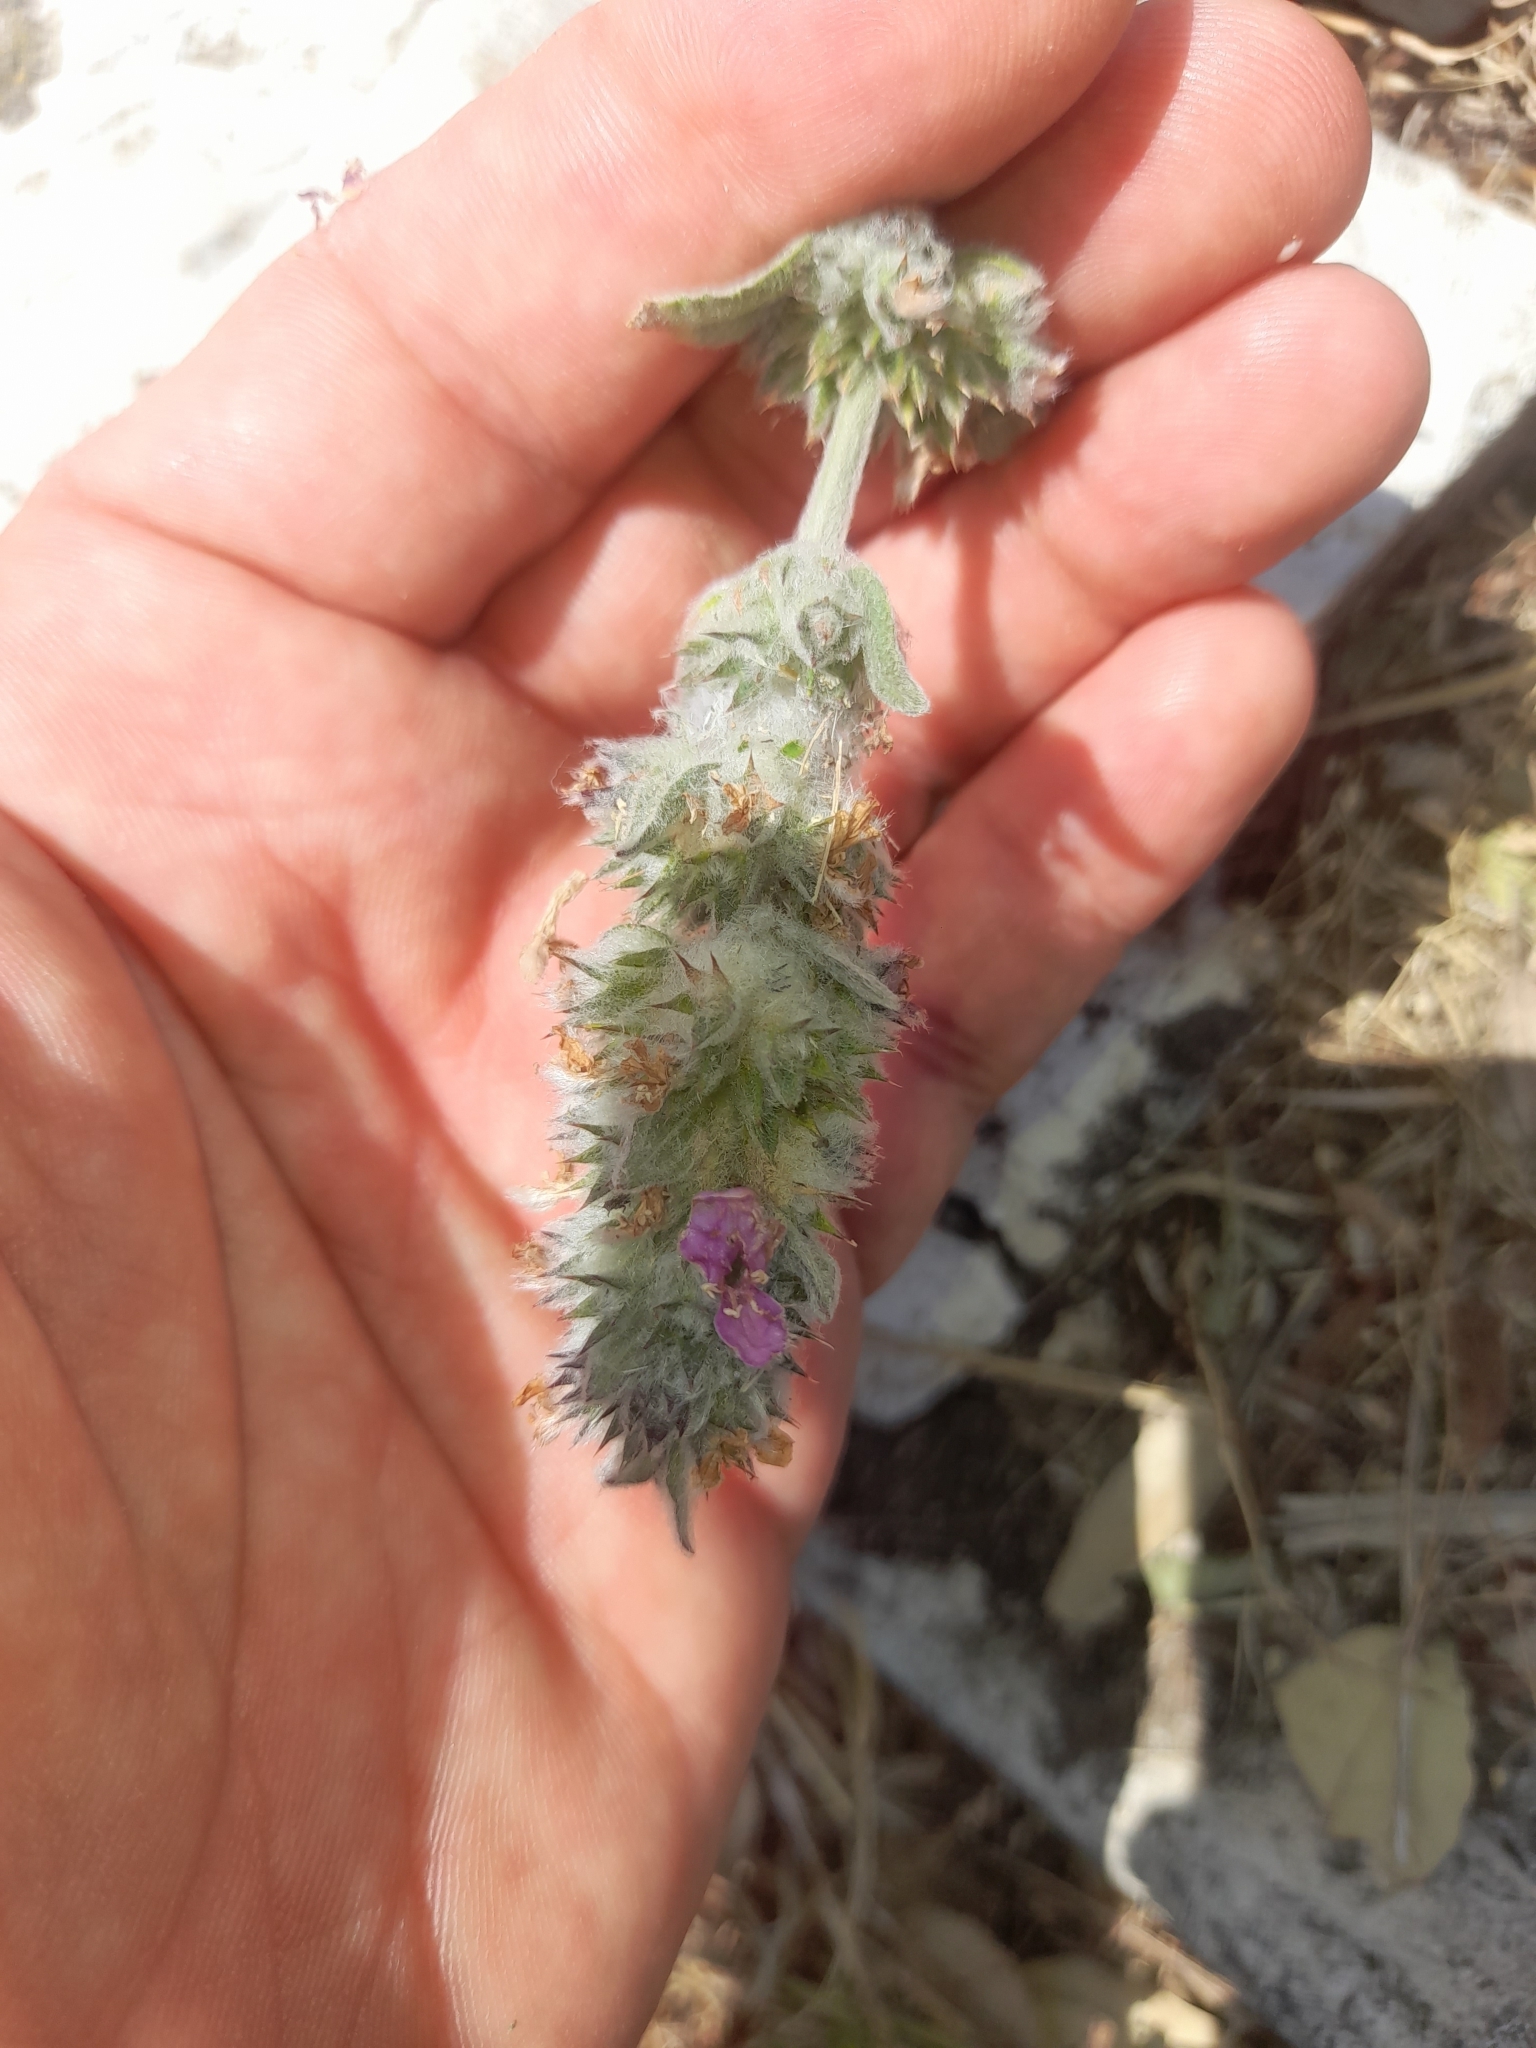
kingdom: Plantae
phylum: Tracheophyta
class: Magnoliopsida
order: Lamiales
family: Lamiaceae
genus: Stachys
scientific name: Stachys germanica
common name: Downy woundwort
